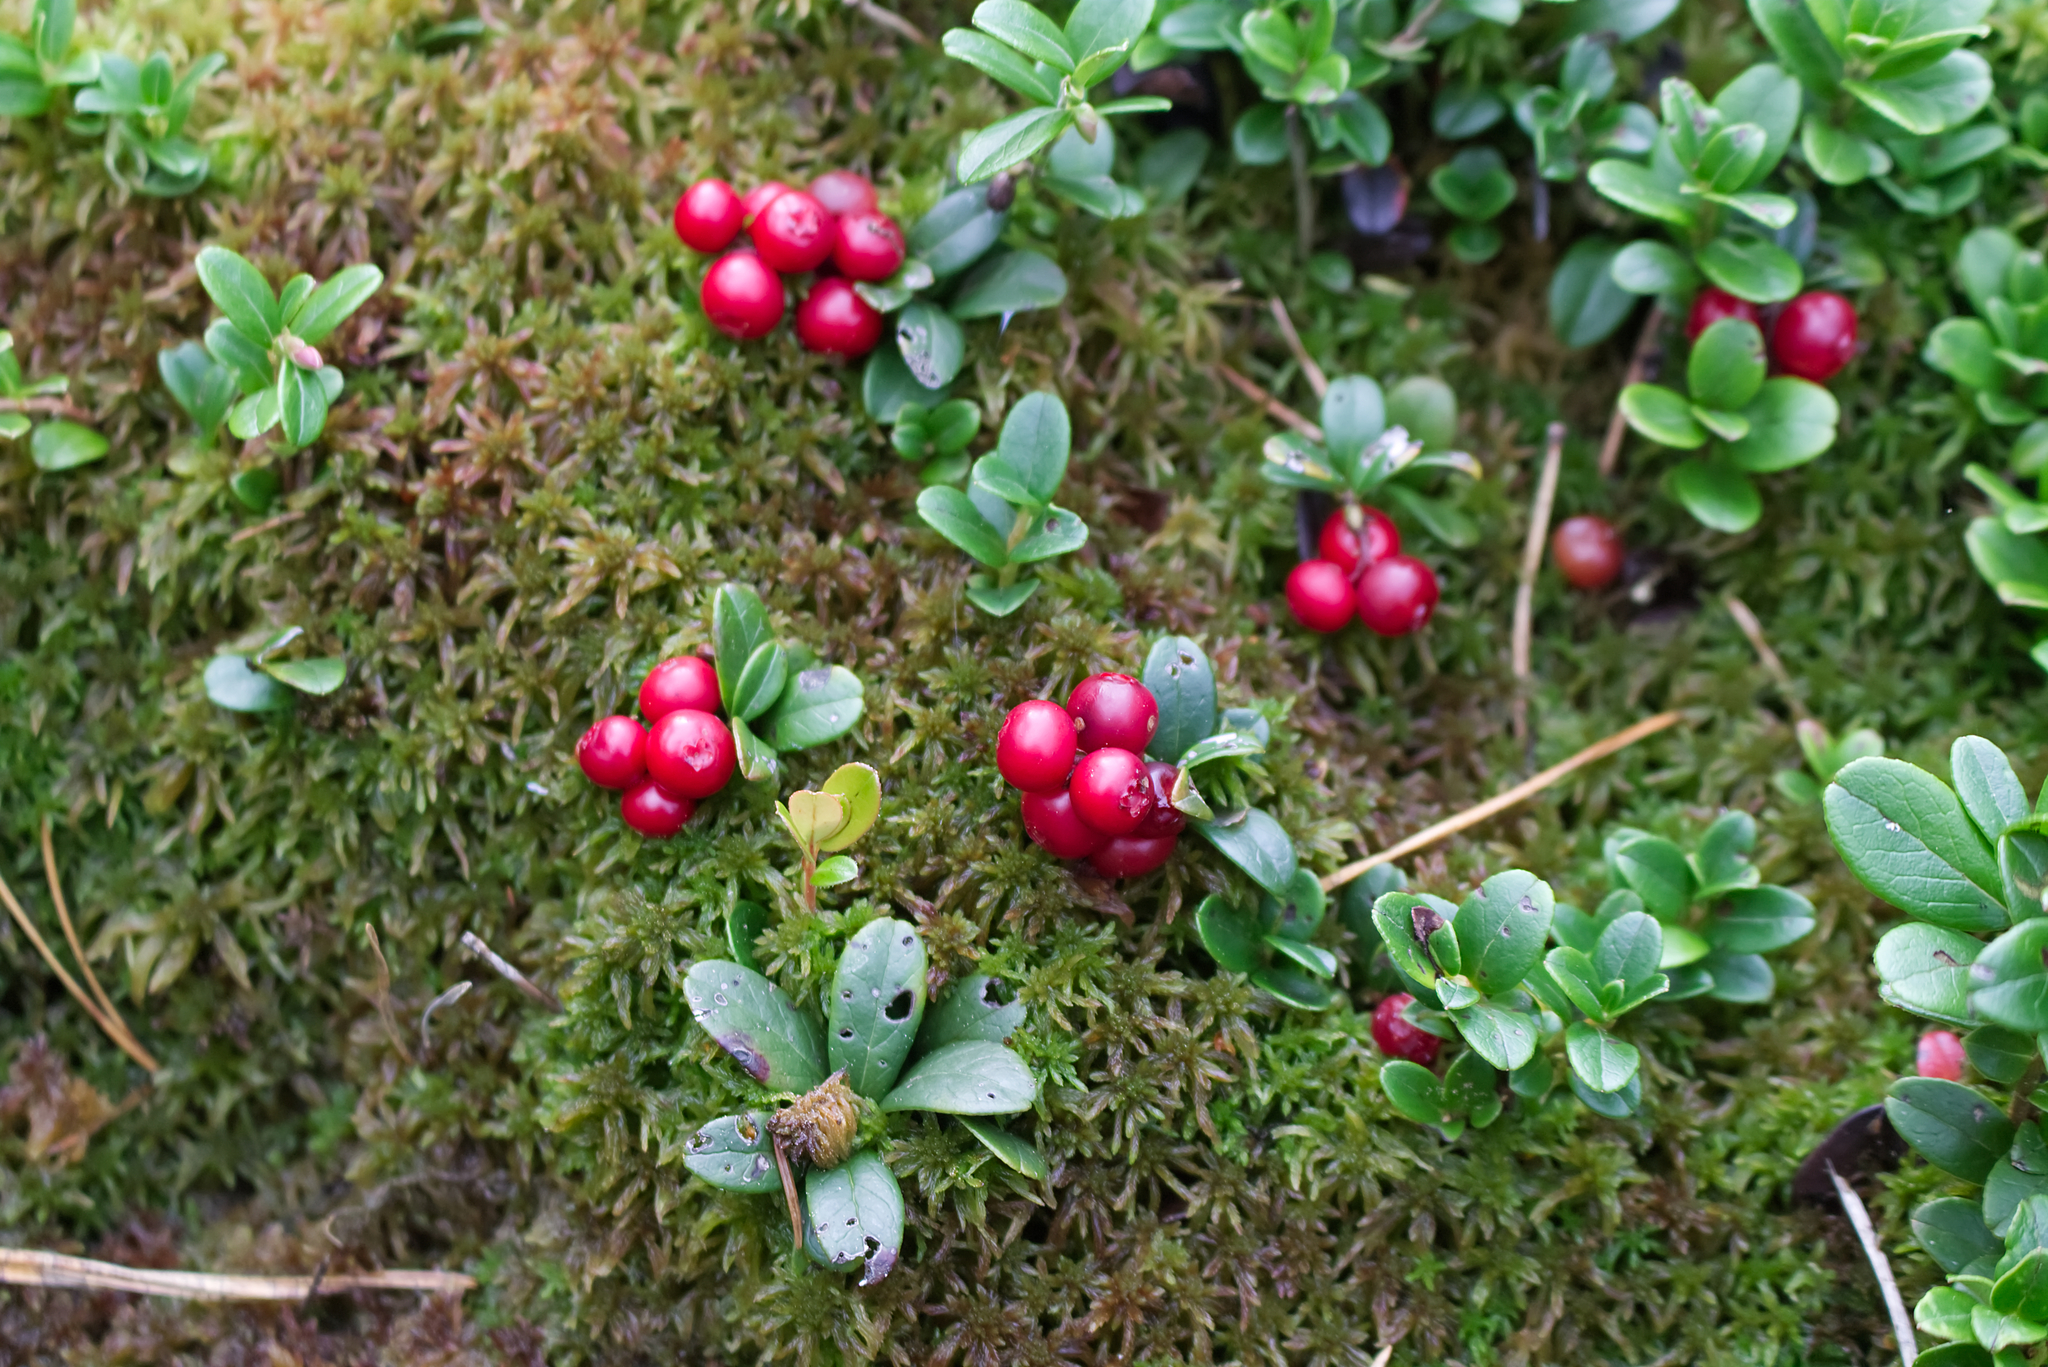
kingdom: Plantae
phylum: Tracheophyta
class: Magnoliopsida
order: Ericales
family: Ericaceae
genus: Vaccinium
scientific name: Vaccinium vitis-idaea
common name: Cowberry
